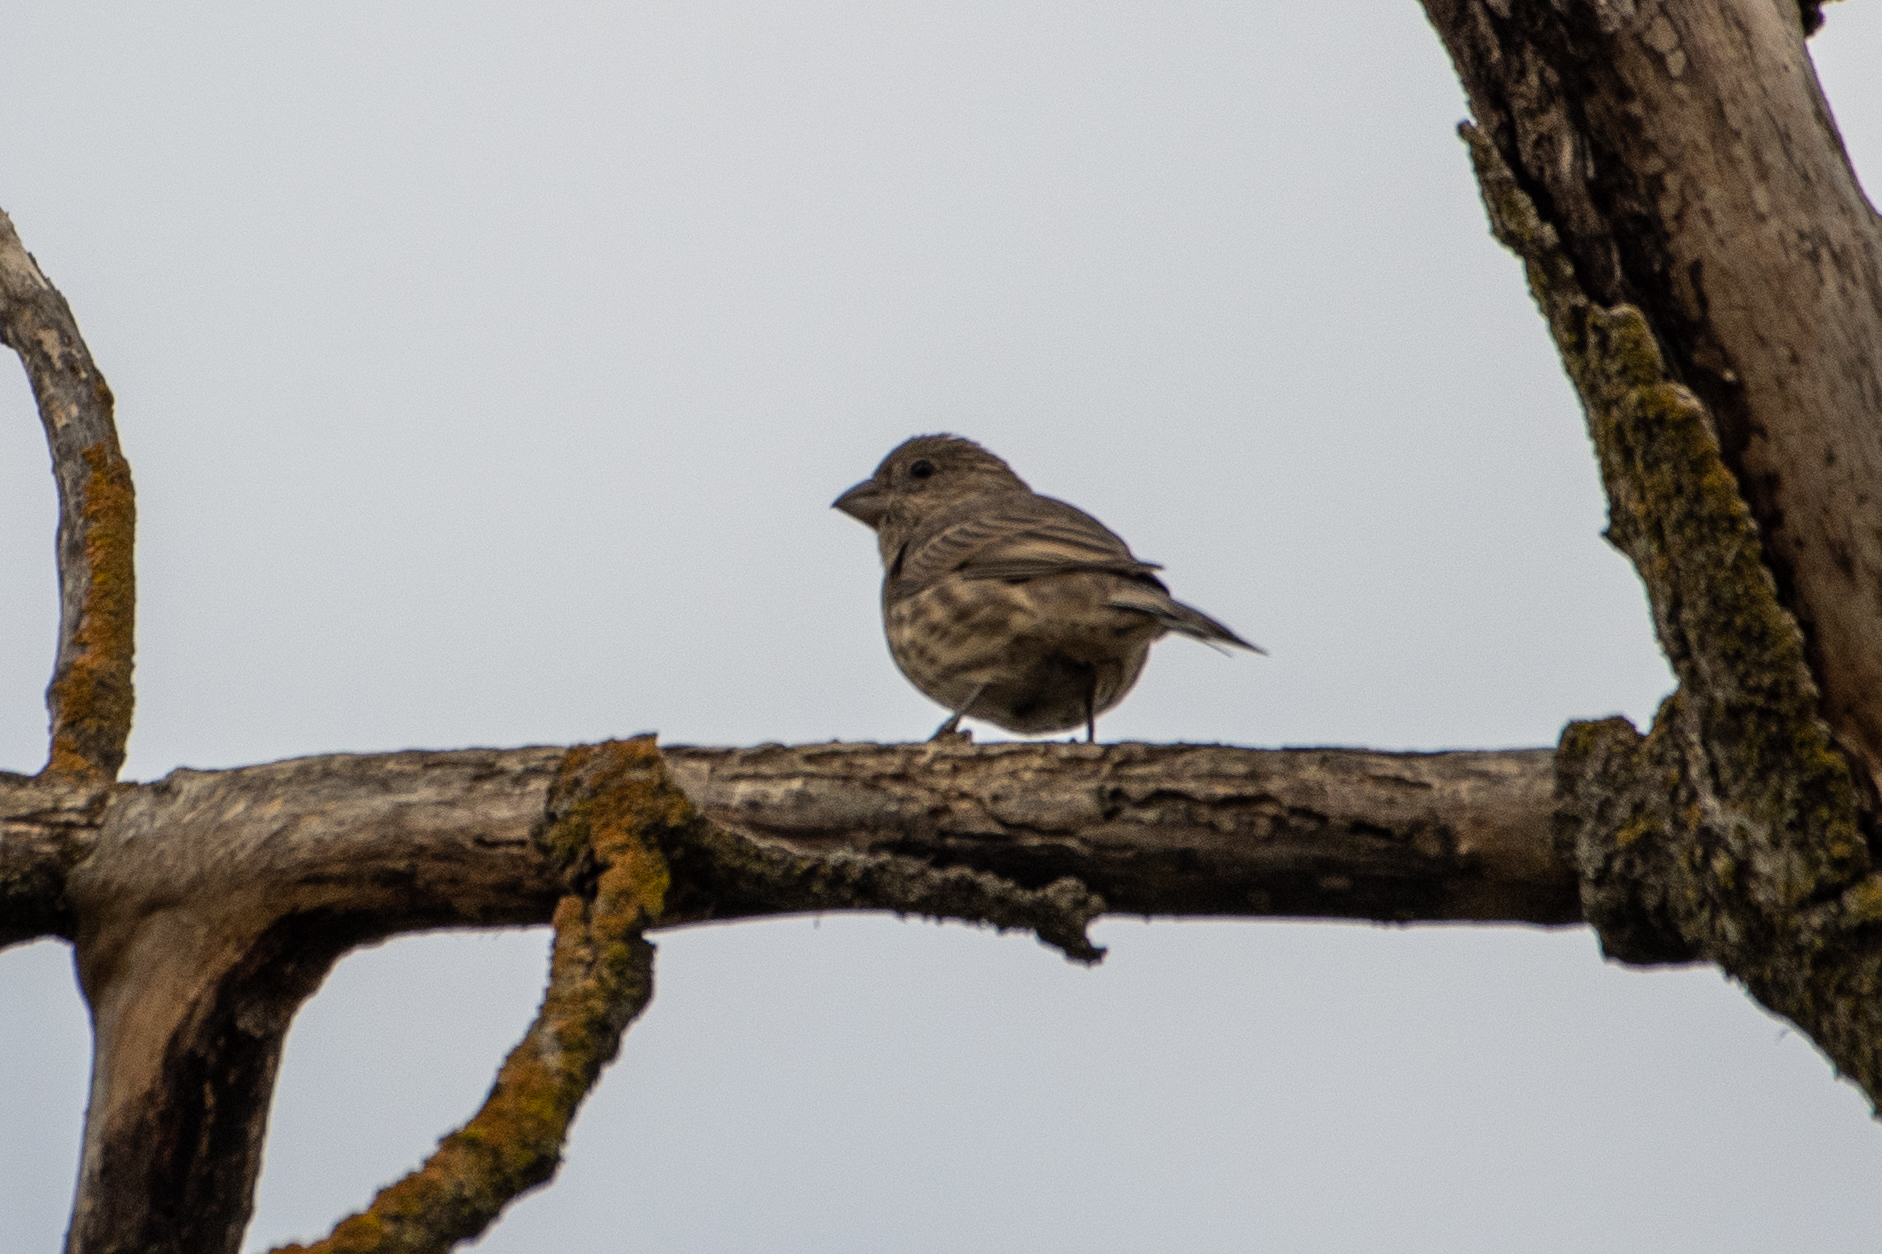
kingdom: Animalia
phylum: Chordata
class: Aves
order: Passeriformes
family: Fringillidae
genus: Haemorhous
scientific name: Haemorhous mexicanus
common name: House finch
